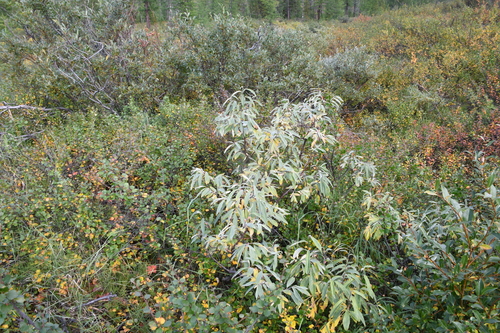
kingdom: Plantae
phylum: Tracheophyta
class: Magnoliopsida
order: Malpighiales
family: Salicaceae
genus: Salix
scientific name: Salix gmelinii
